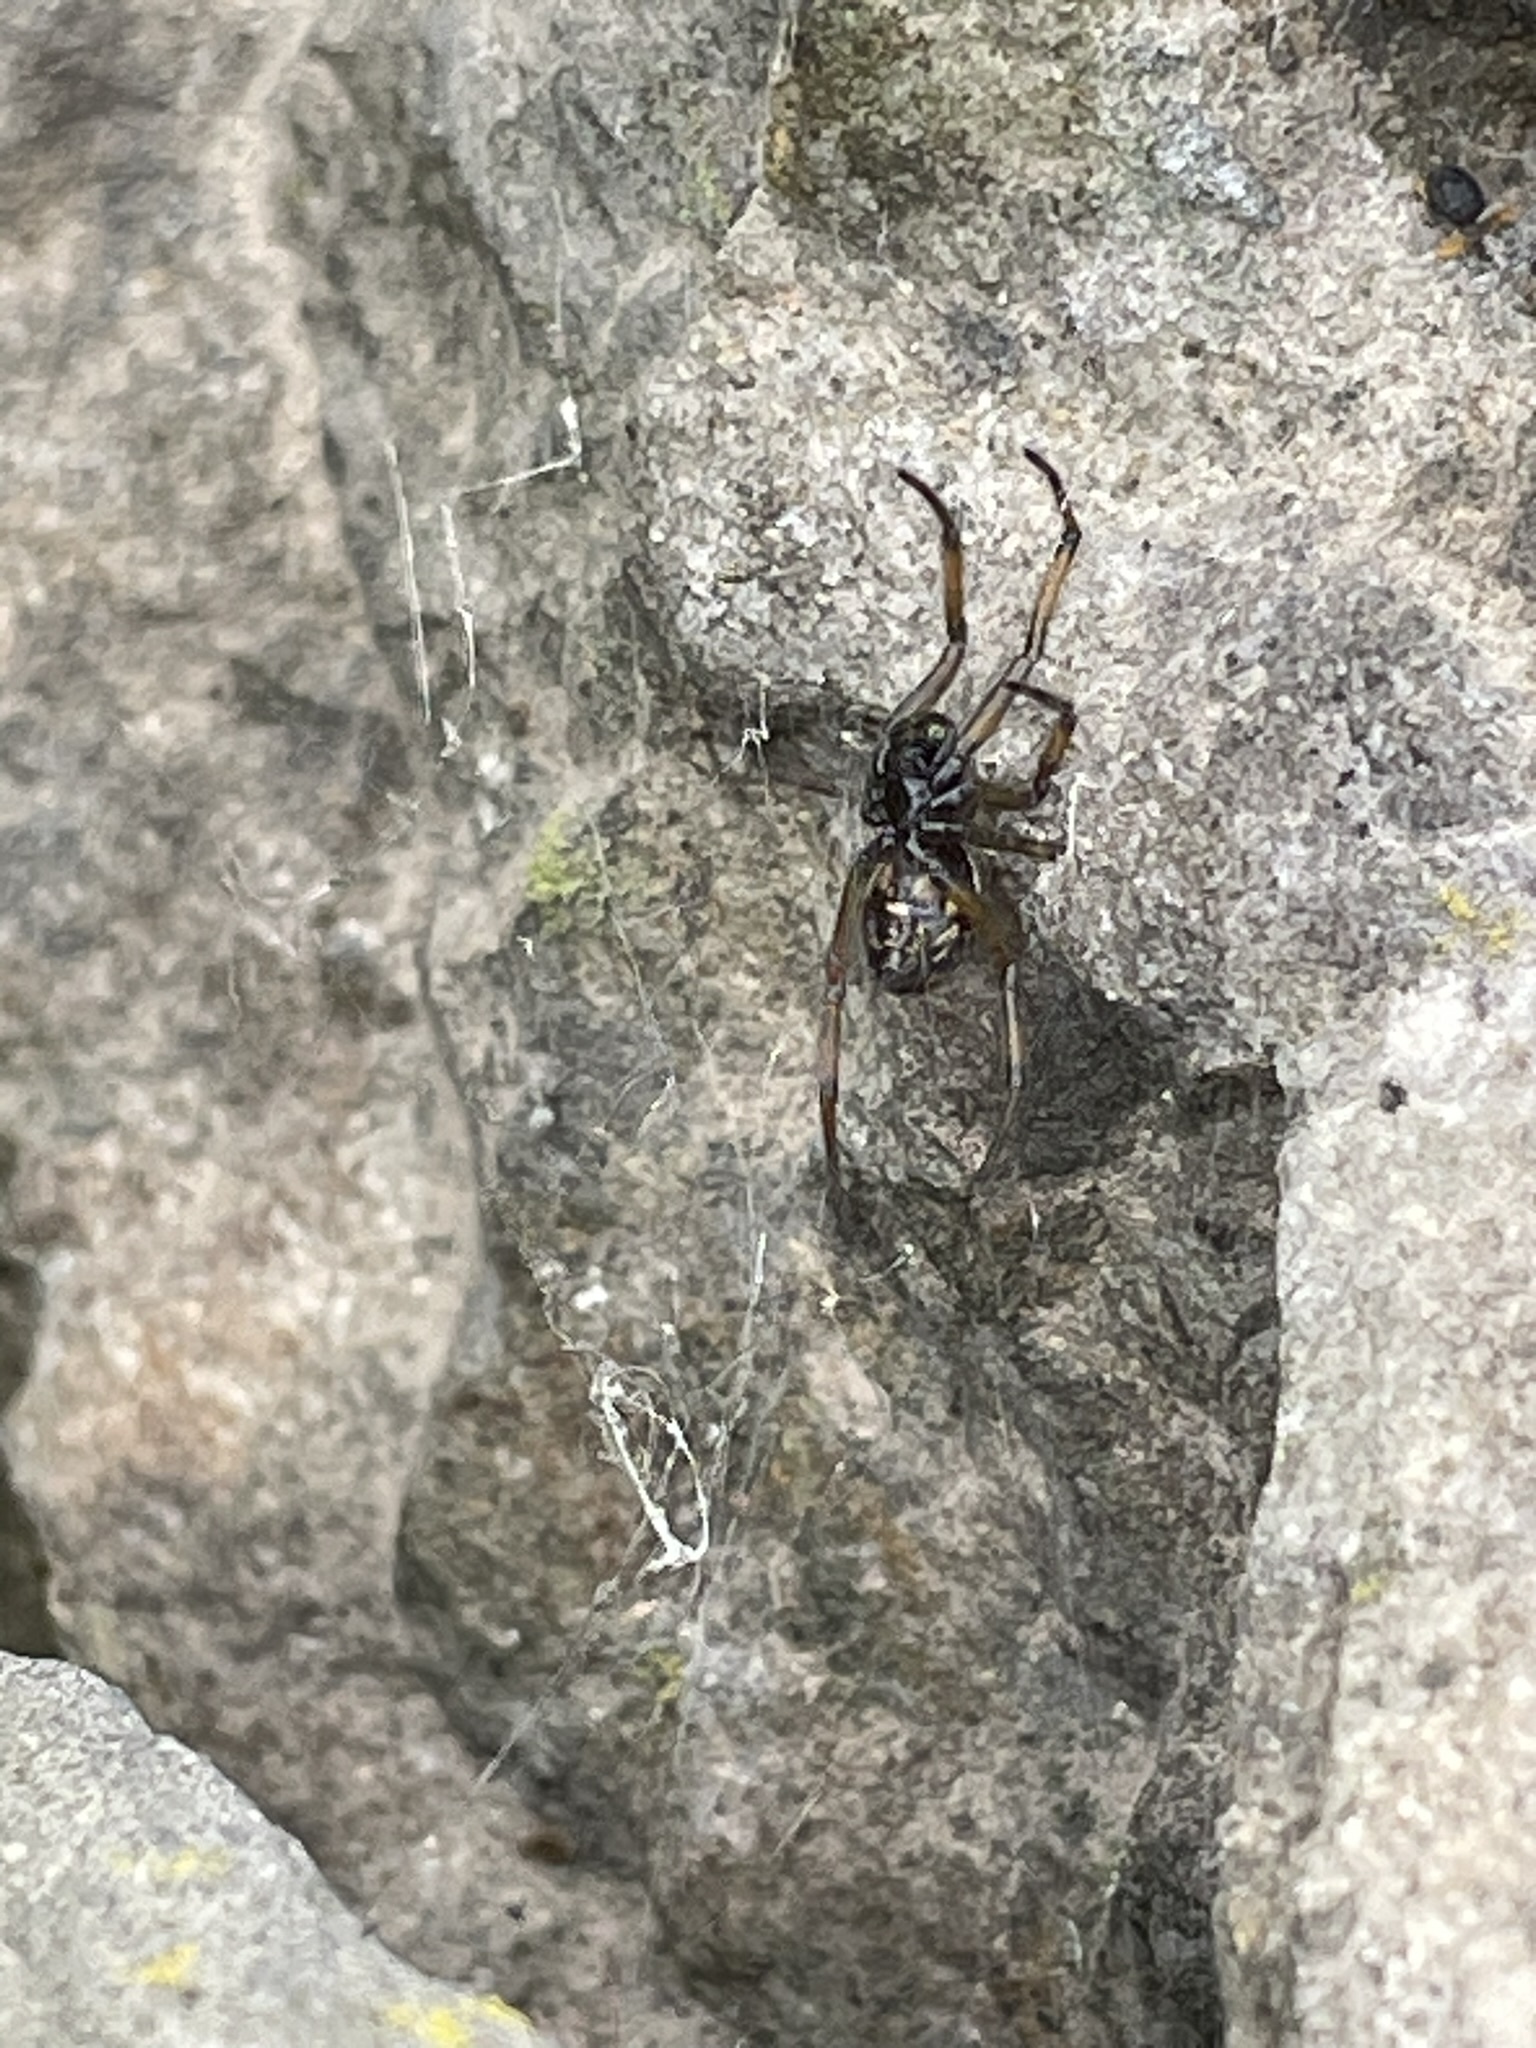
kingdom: Animalia
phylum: Arthropoda
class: Arachnida
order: Araneae
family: Theridiidae
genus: Steatoda
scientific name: Steatoda sabulosa
